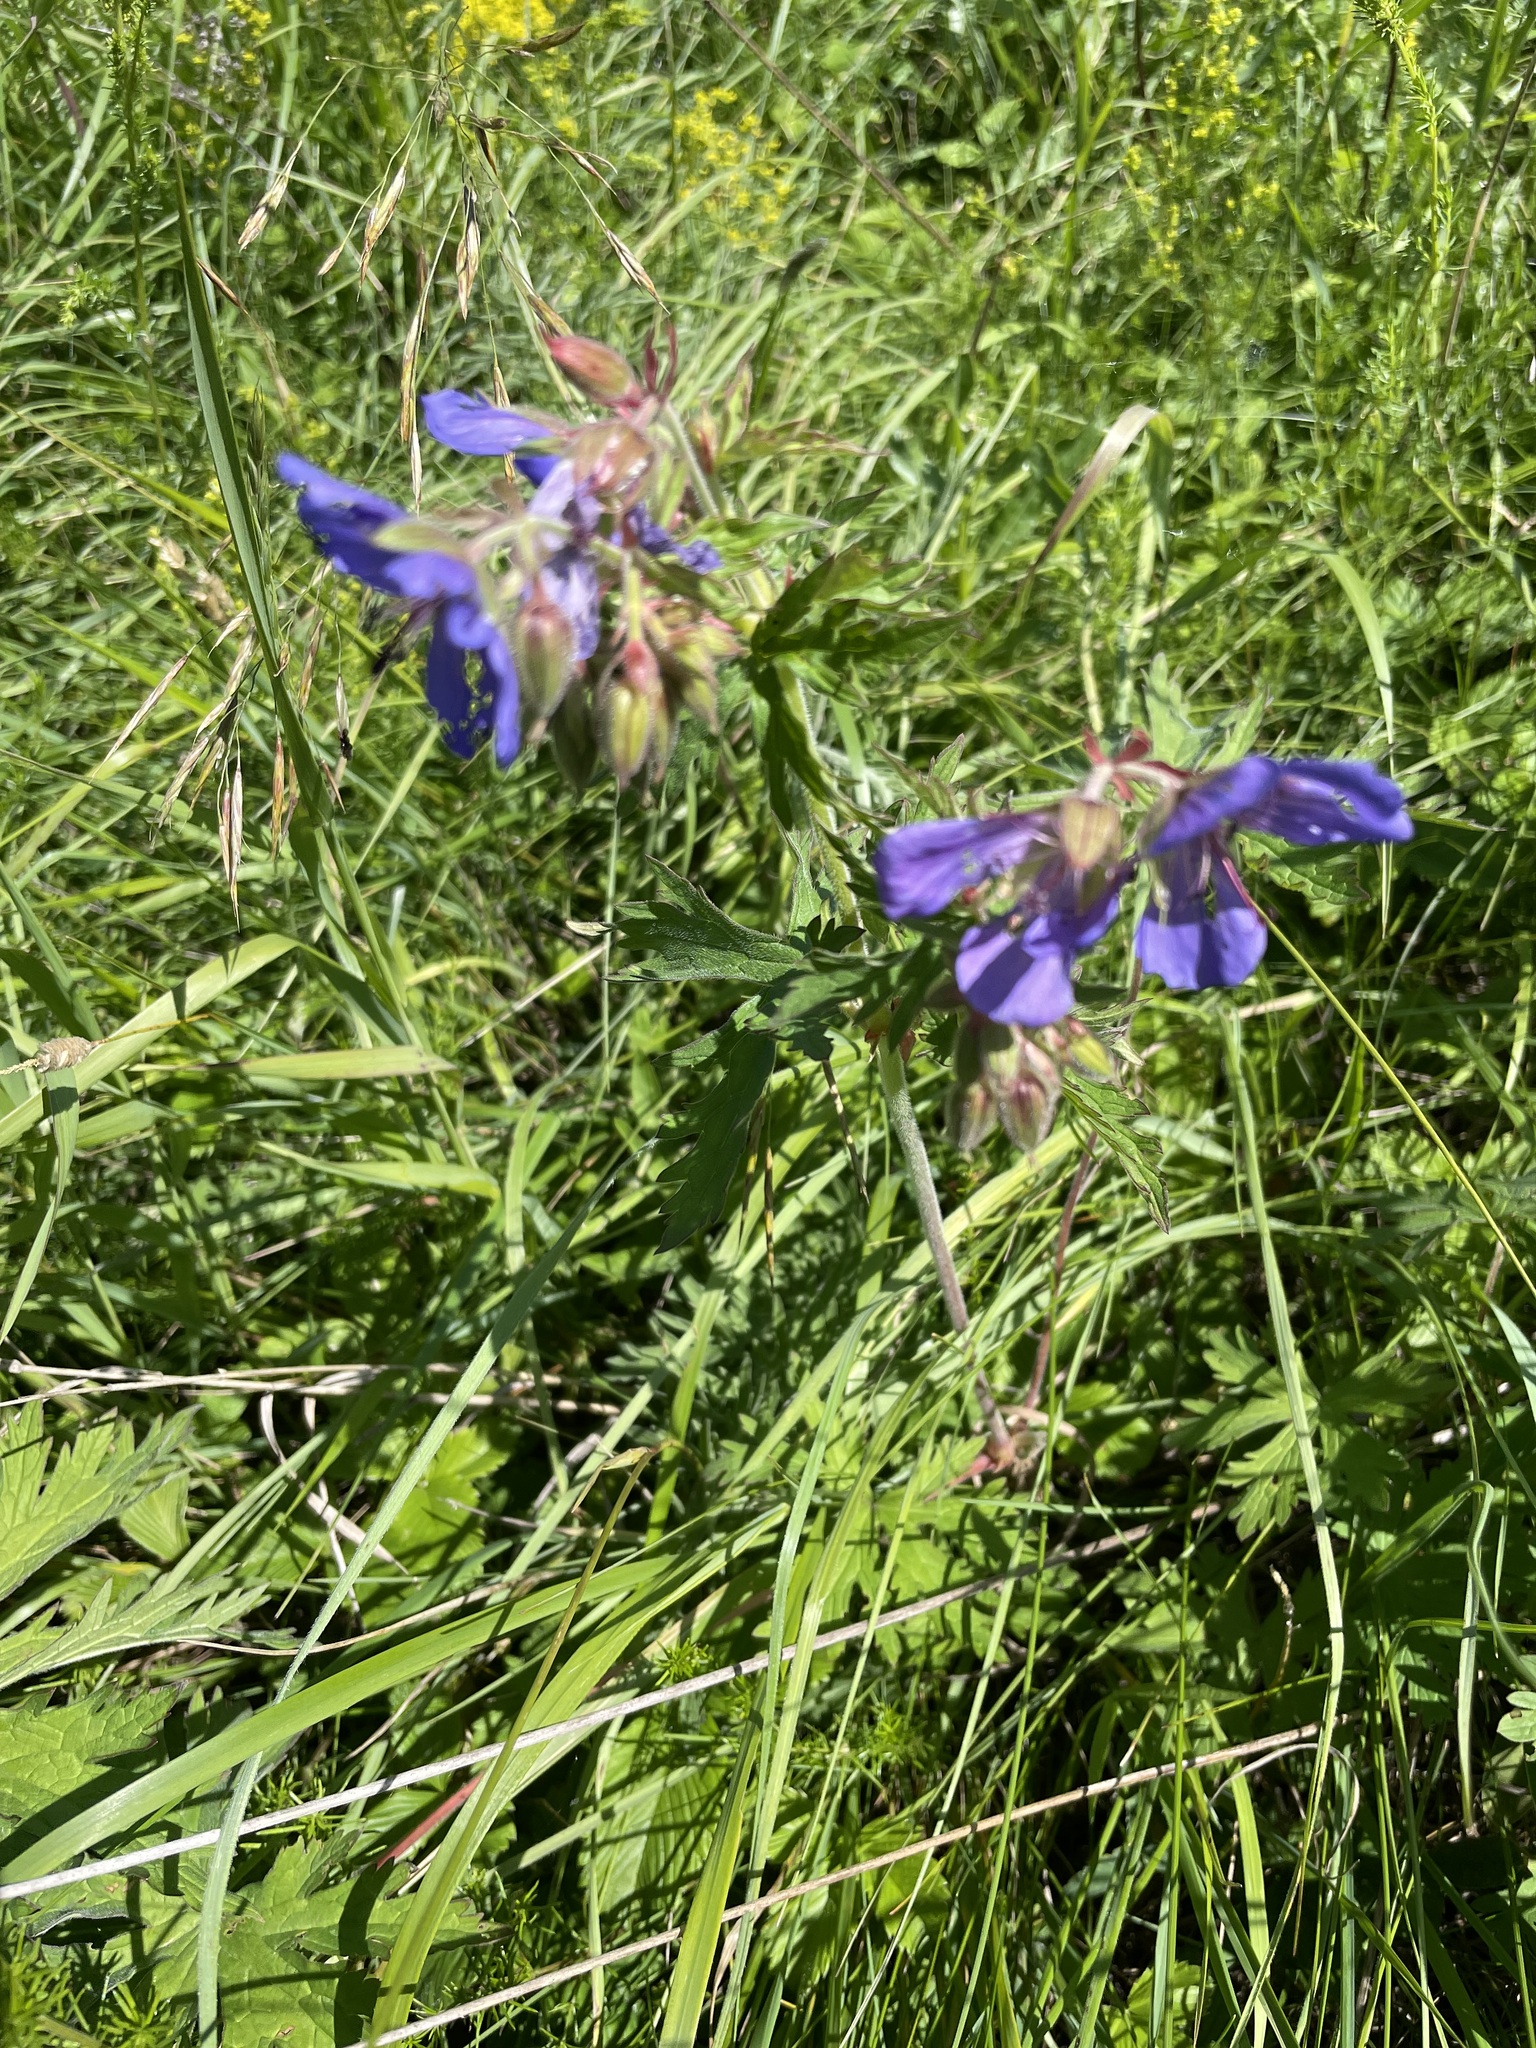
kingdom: Plantae
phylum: Tracheophyta
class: Magnoliopsida
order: Geraniales
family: Geraniaceae
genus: Geranium
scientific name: Geranium pratense
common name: Meadow crane's-bill
